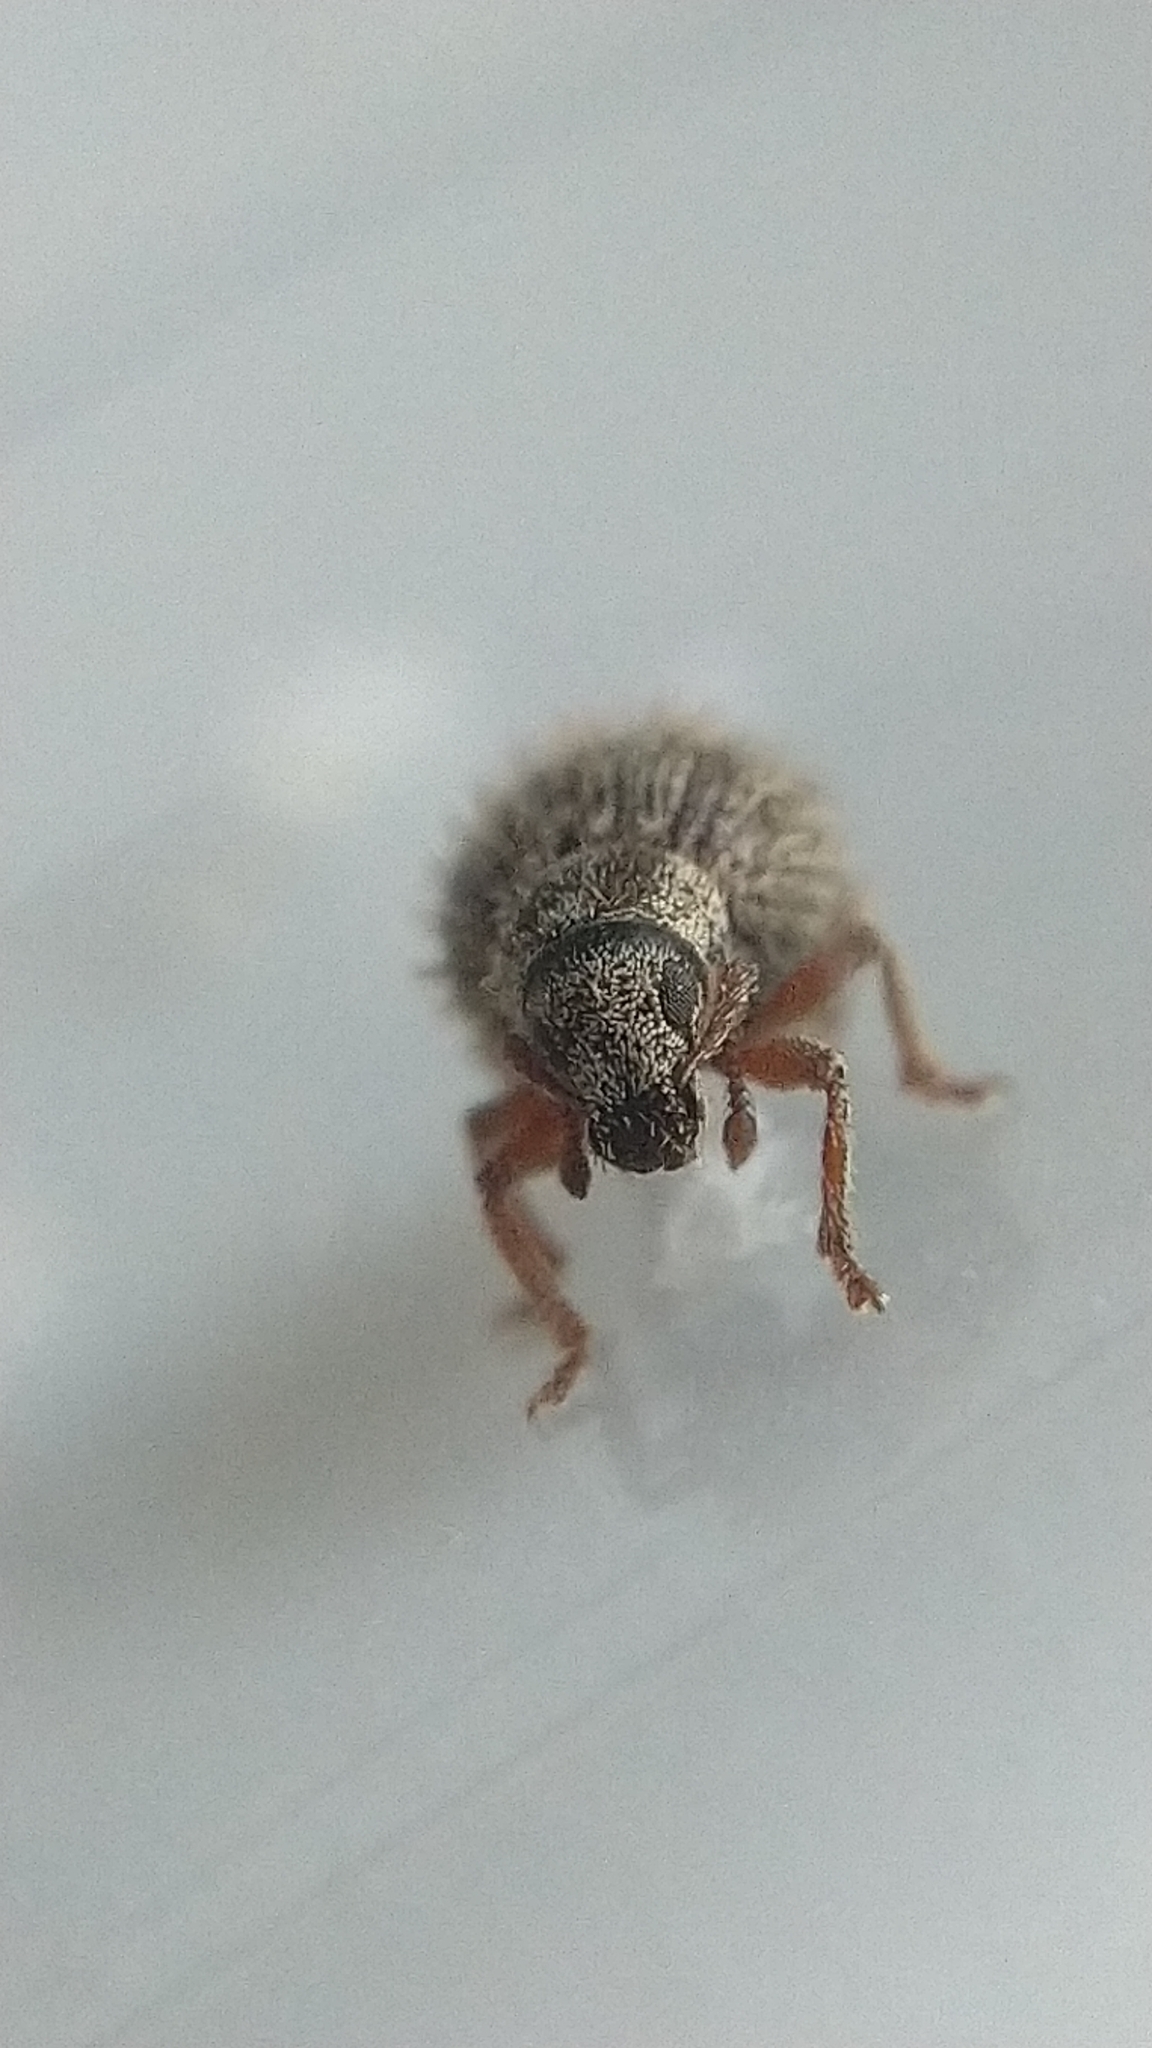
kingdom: Animalia
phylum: Arthropoda
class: Insecta
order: Coleoptera
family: Curculionidae
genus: Brachysomus
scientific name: Brachysomus echinatus
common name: Weevil
